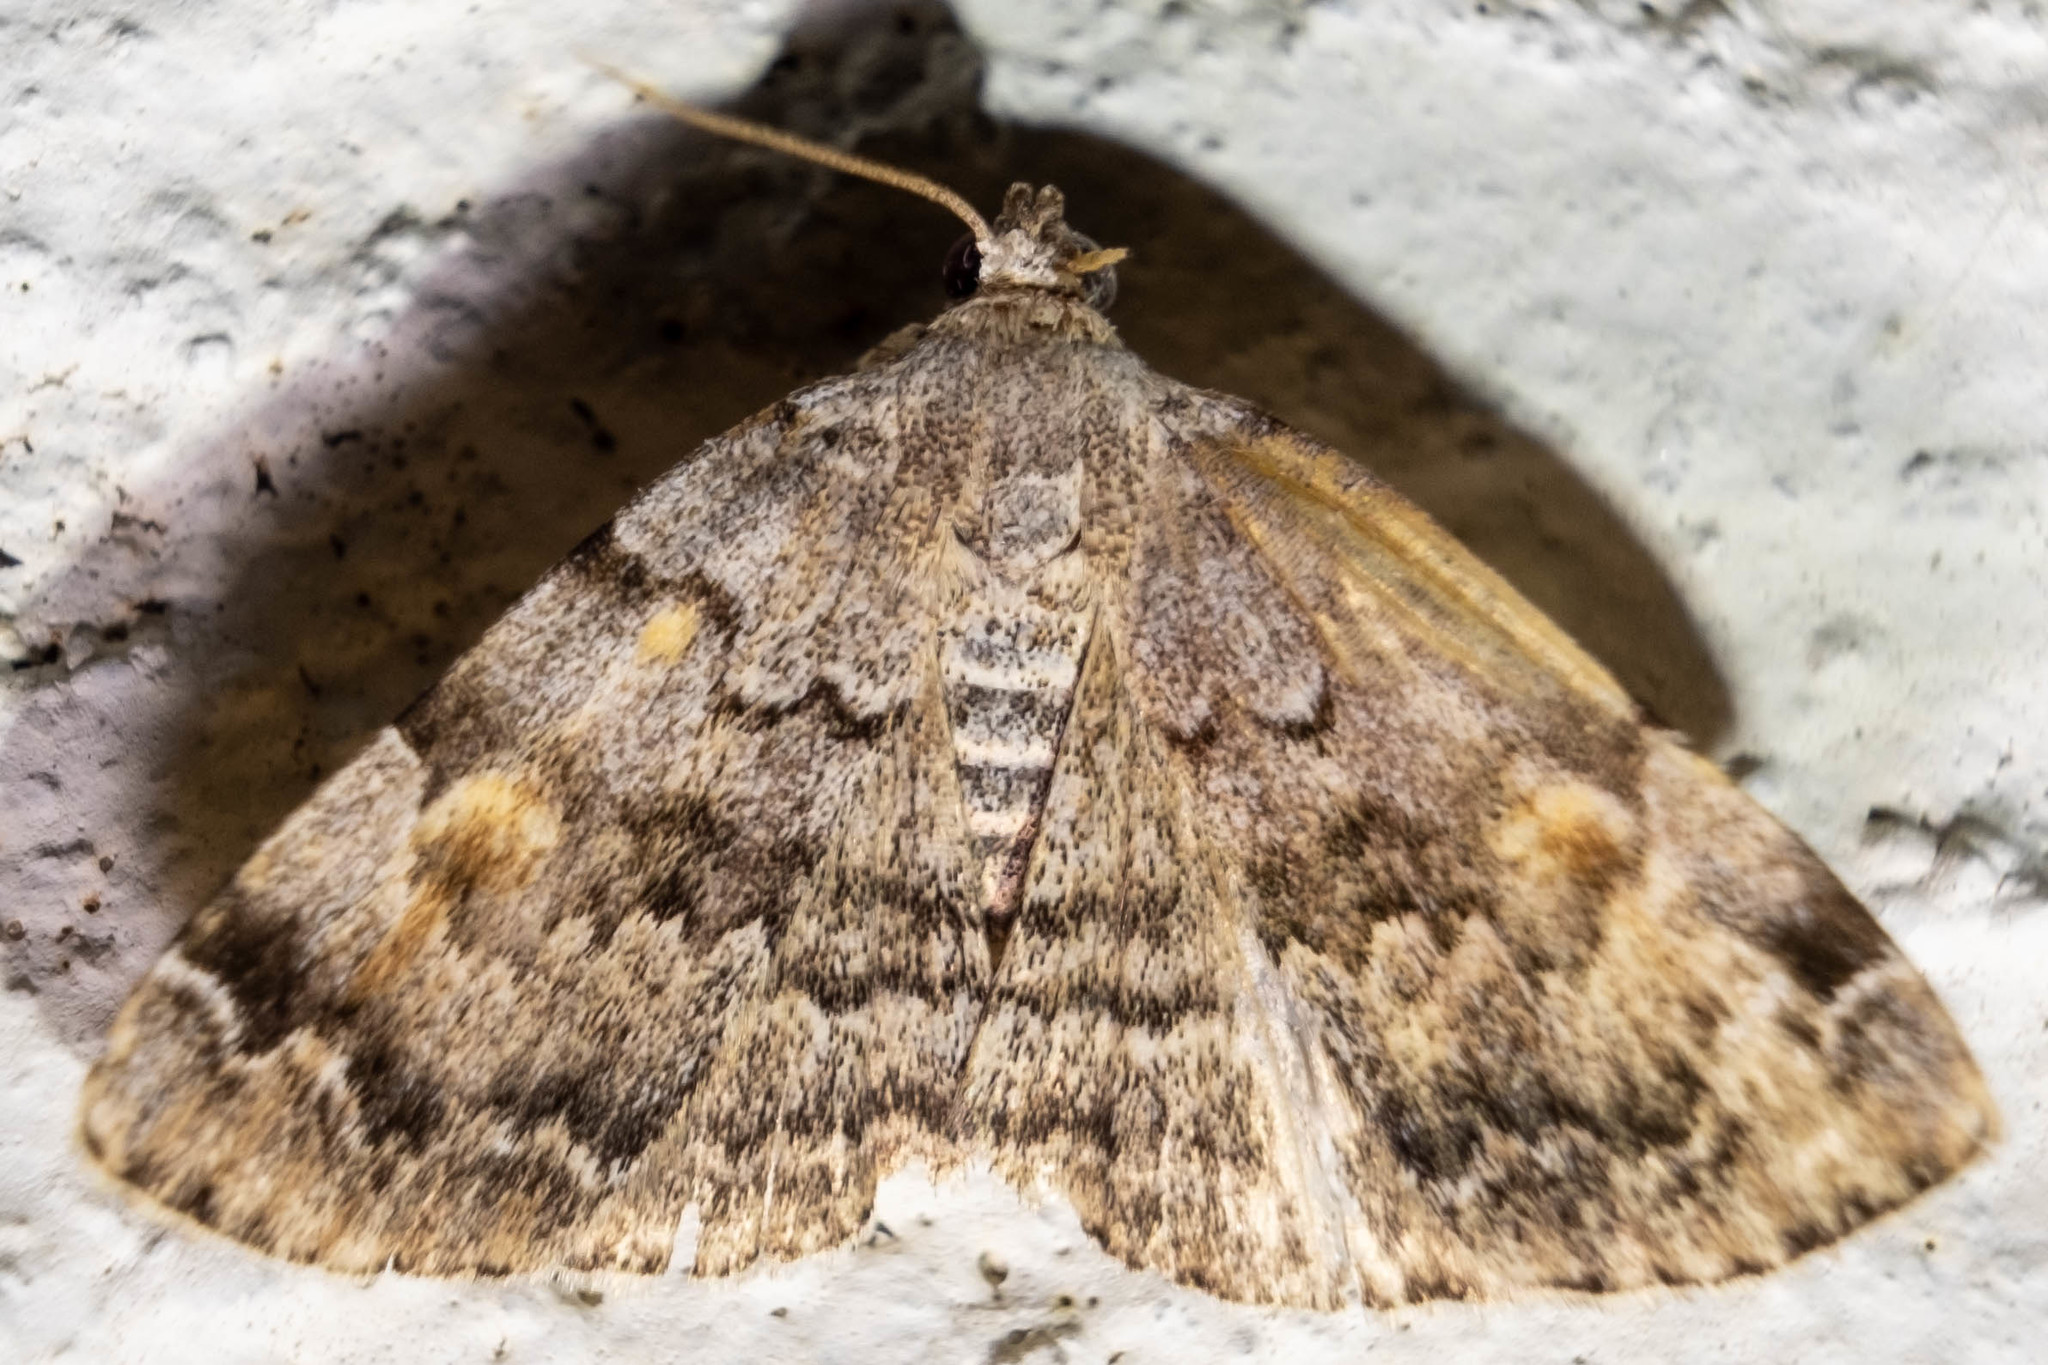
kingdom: Animalia
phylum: Arthropoda
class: Insecta
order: Lepidoptera
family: Erebidae
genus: Idia
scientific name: Idia americalis
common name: American idia moth
